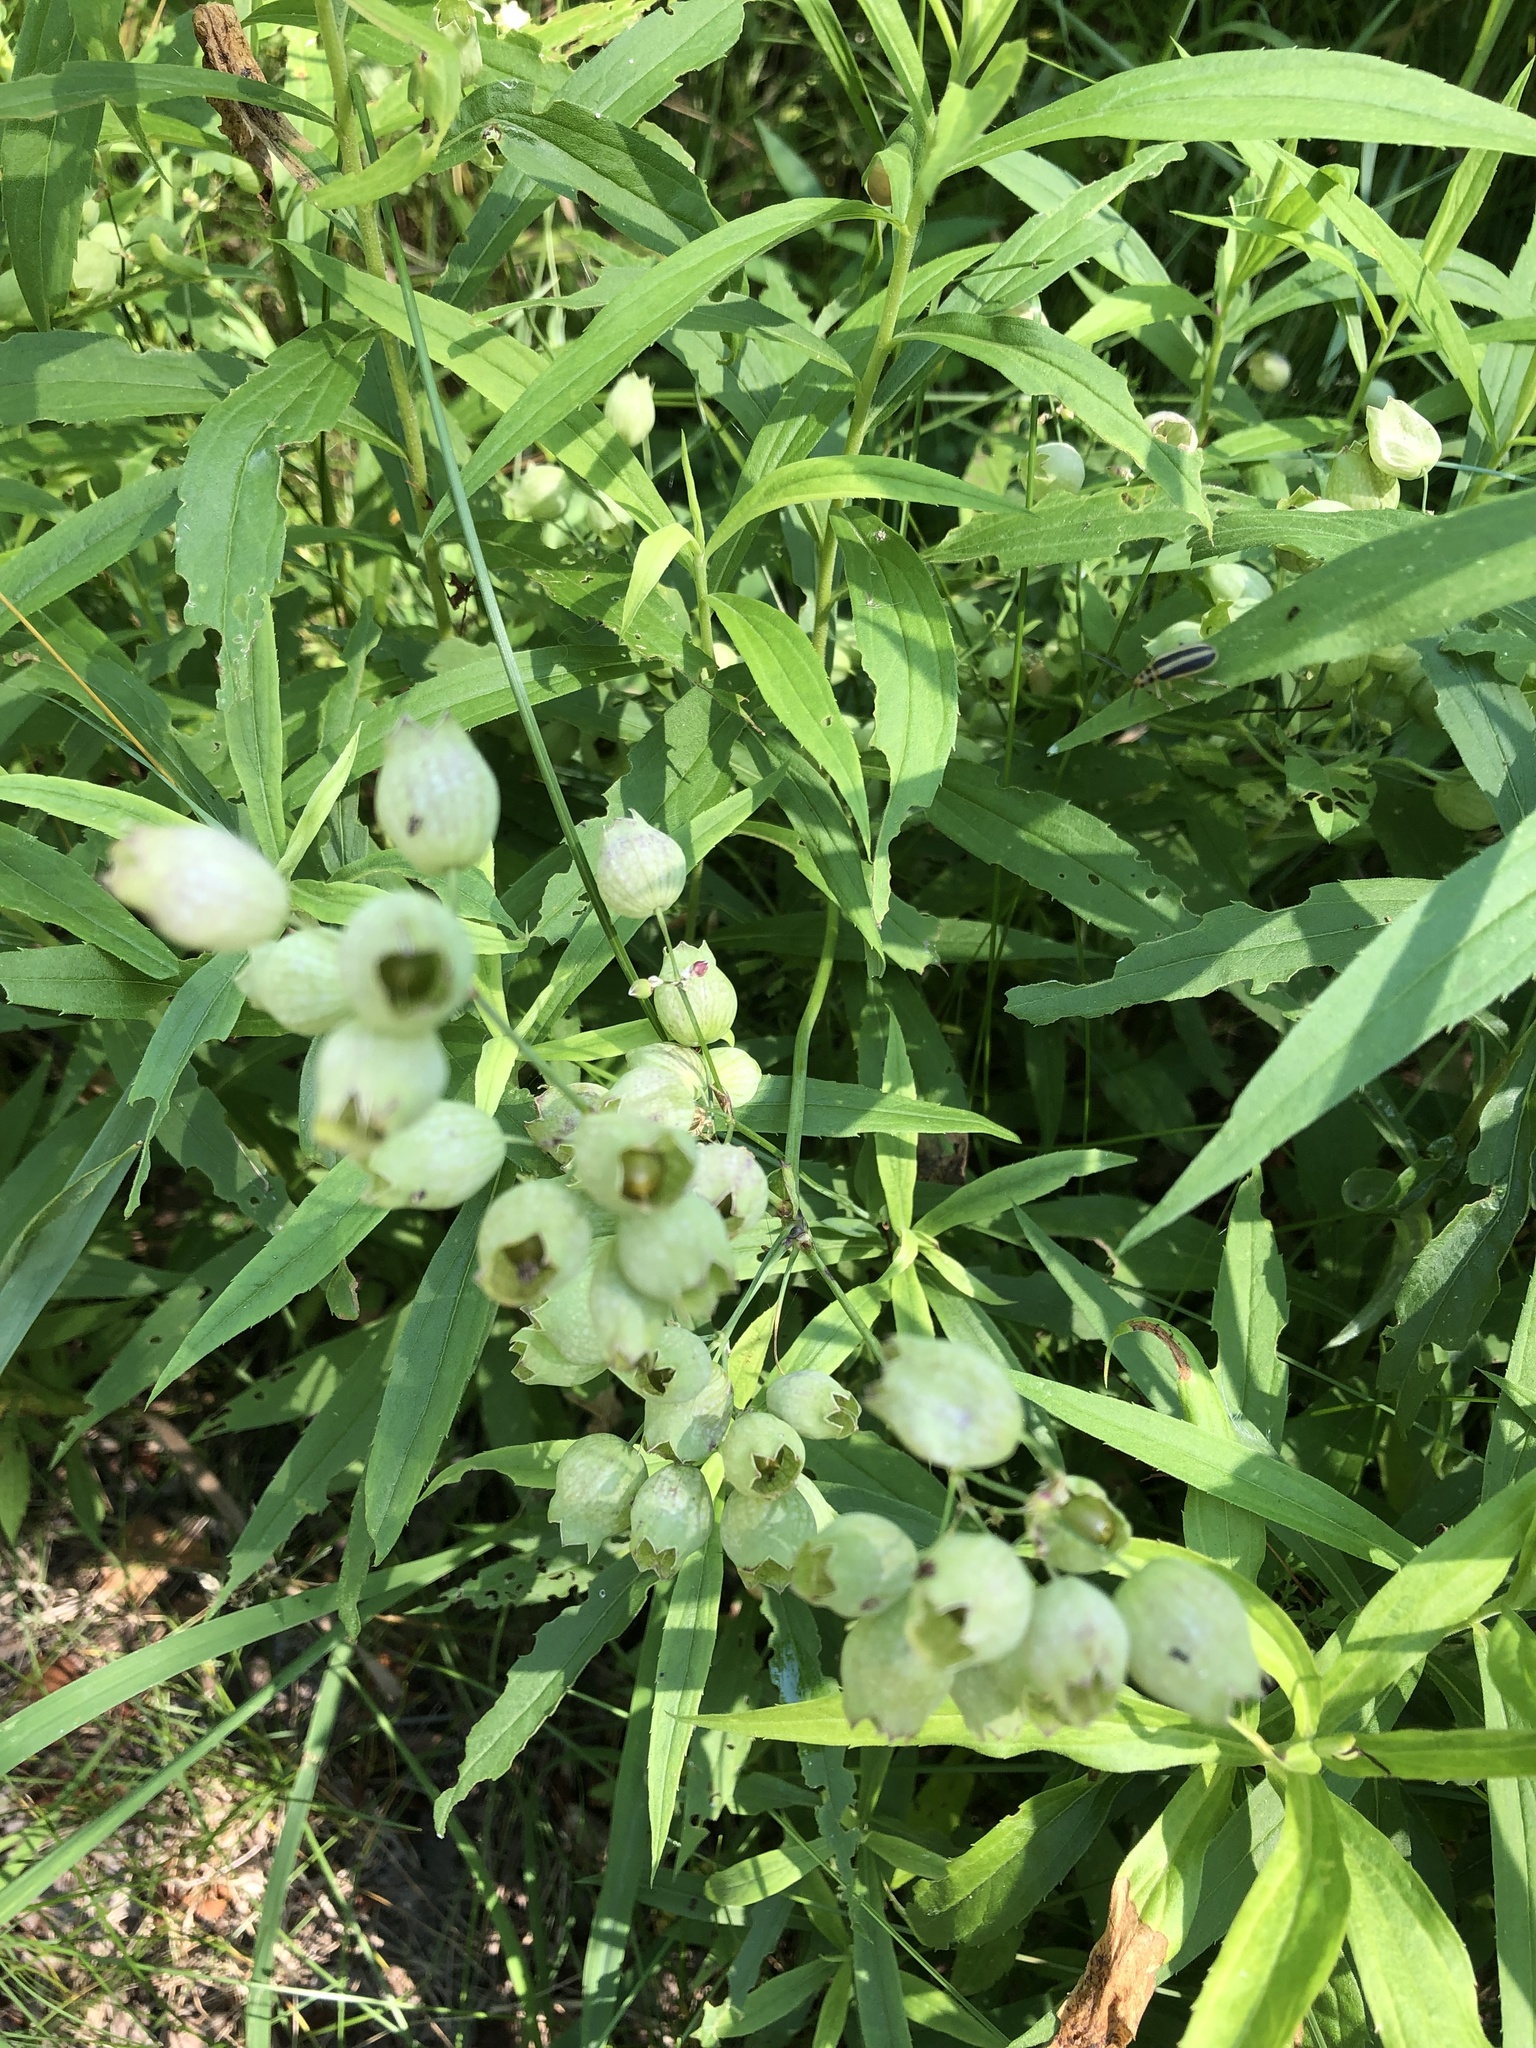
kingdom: Plantae
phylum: Tracheophyta
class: Magnoliopsida
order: Caryophyllales
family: Caryophyllaceae
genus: Silene
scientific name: Silene vulgaris
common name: Bladder campion
